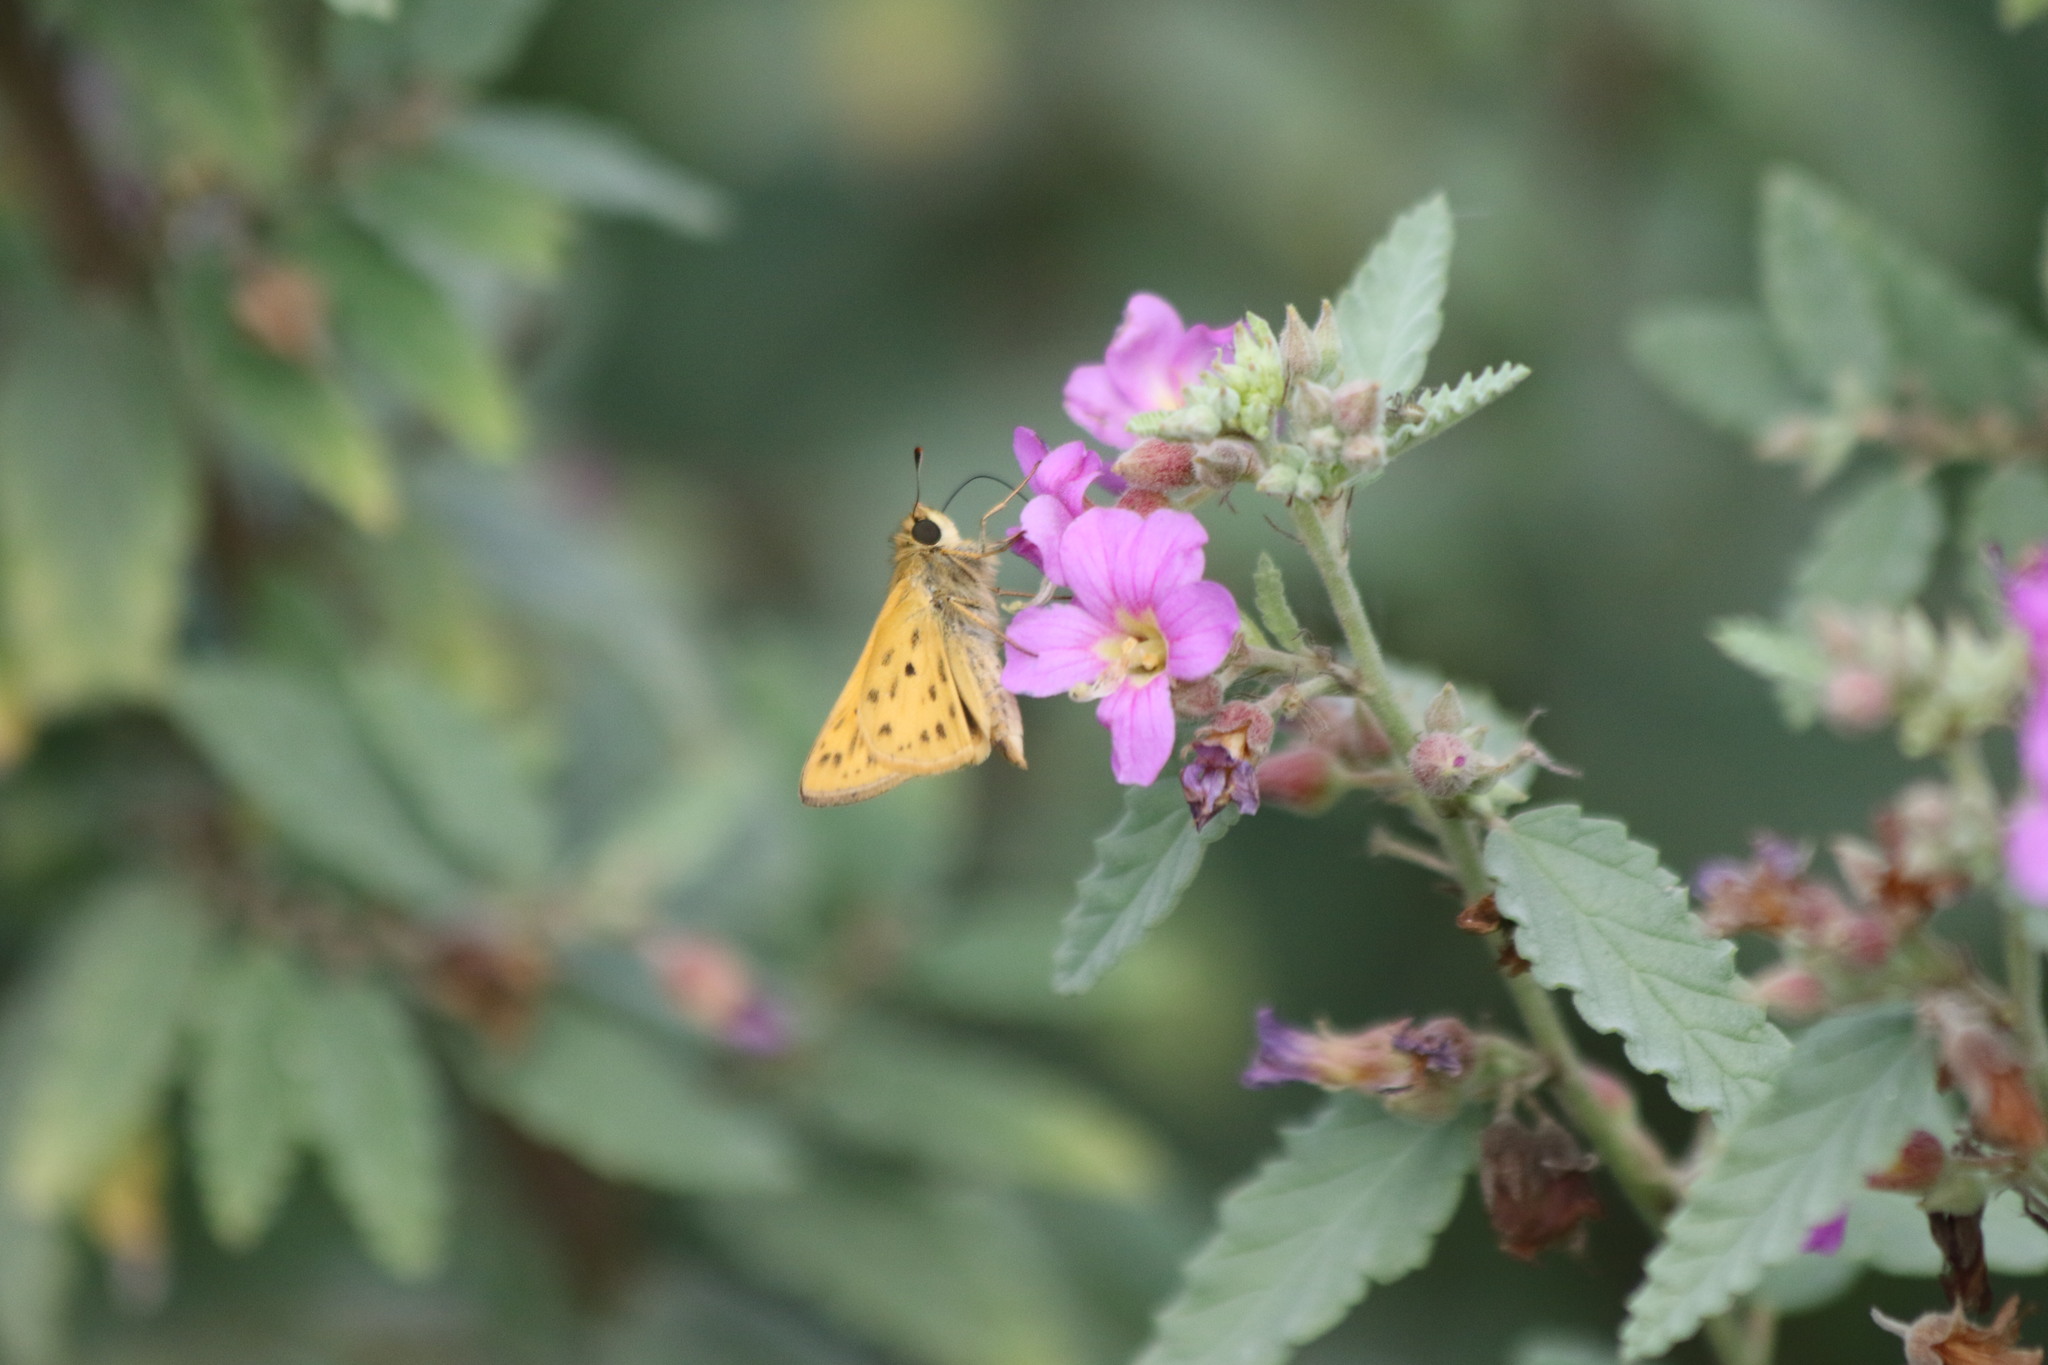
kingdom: Animalia
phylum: Arthropoda
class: Insecta
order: Lepidoptera
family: Hesperiidae
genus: Hylephila
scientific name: Hylephila phyleus
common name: Fiery skipper
